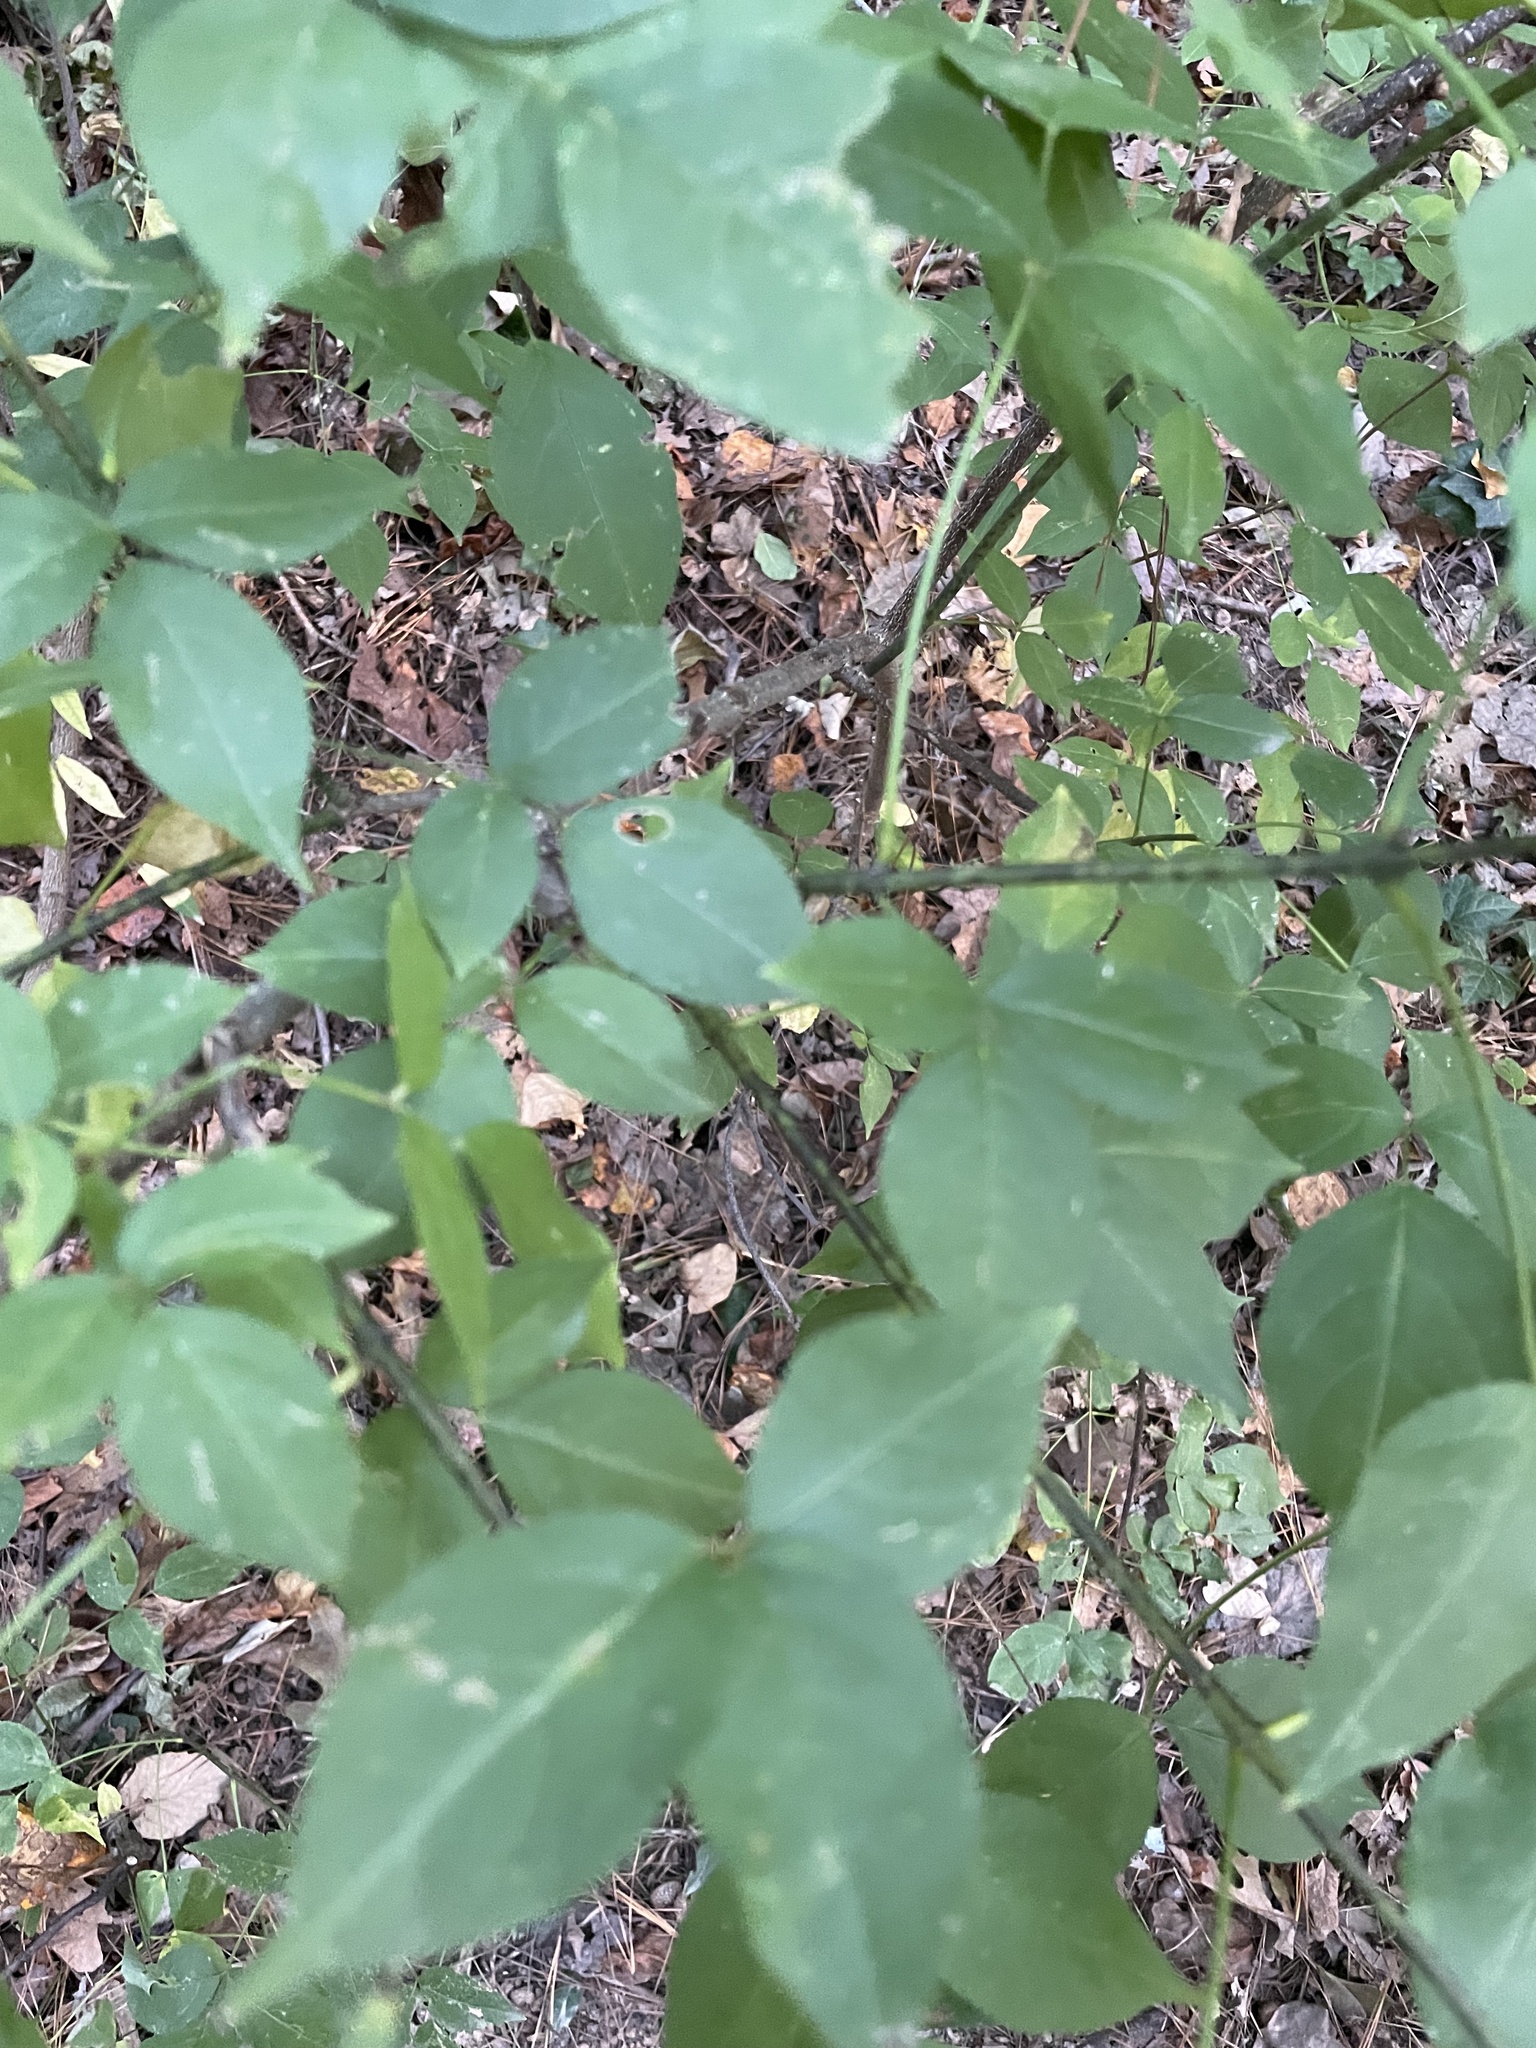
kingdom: Plantae
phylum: Tracheophyta
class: Magnoliopsida
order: Crossosomatales
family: Staphyleaceae
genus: Staphylea
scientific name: Staphylea trifolia
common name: American bladdernut
